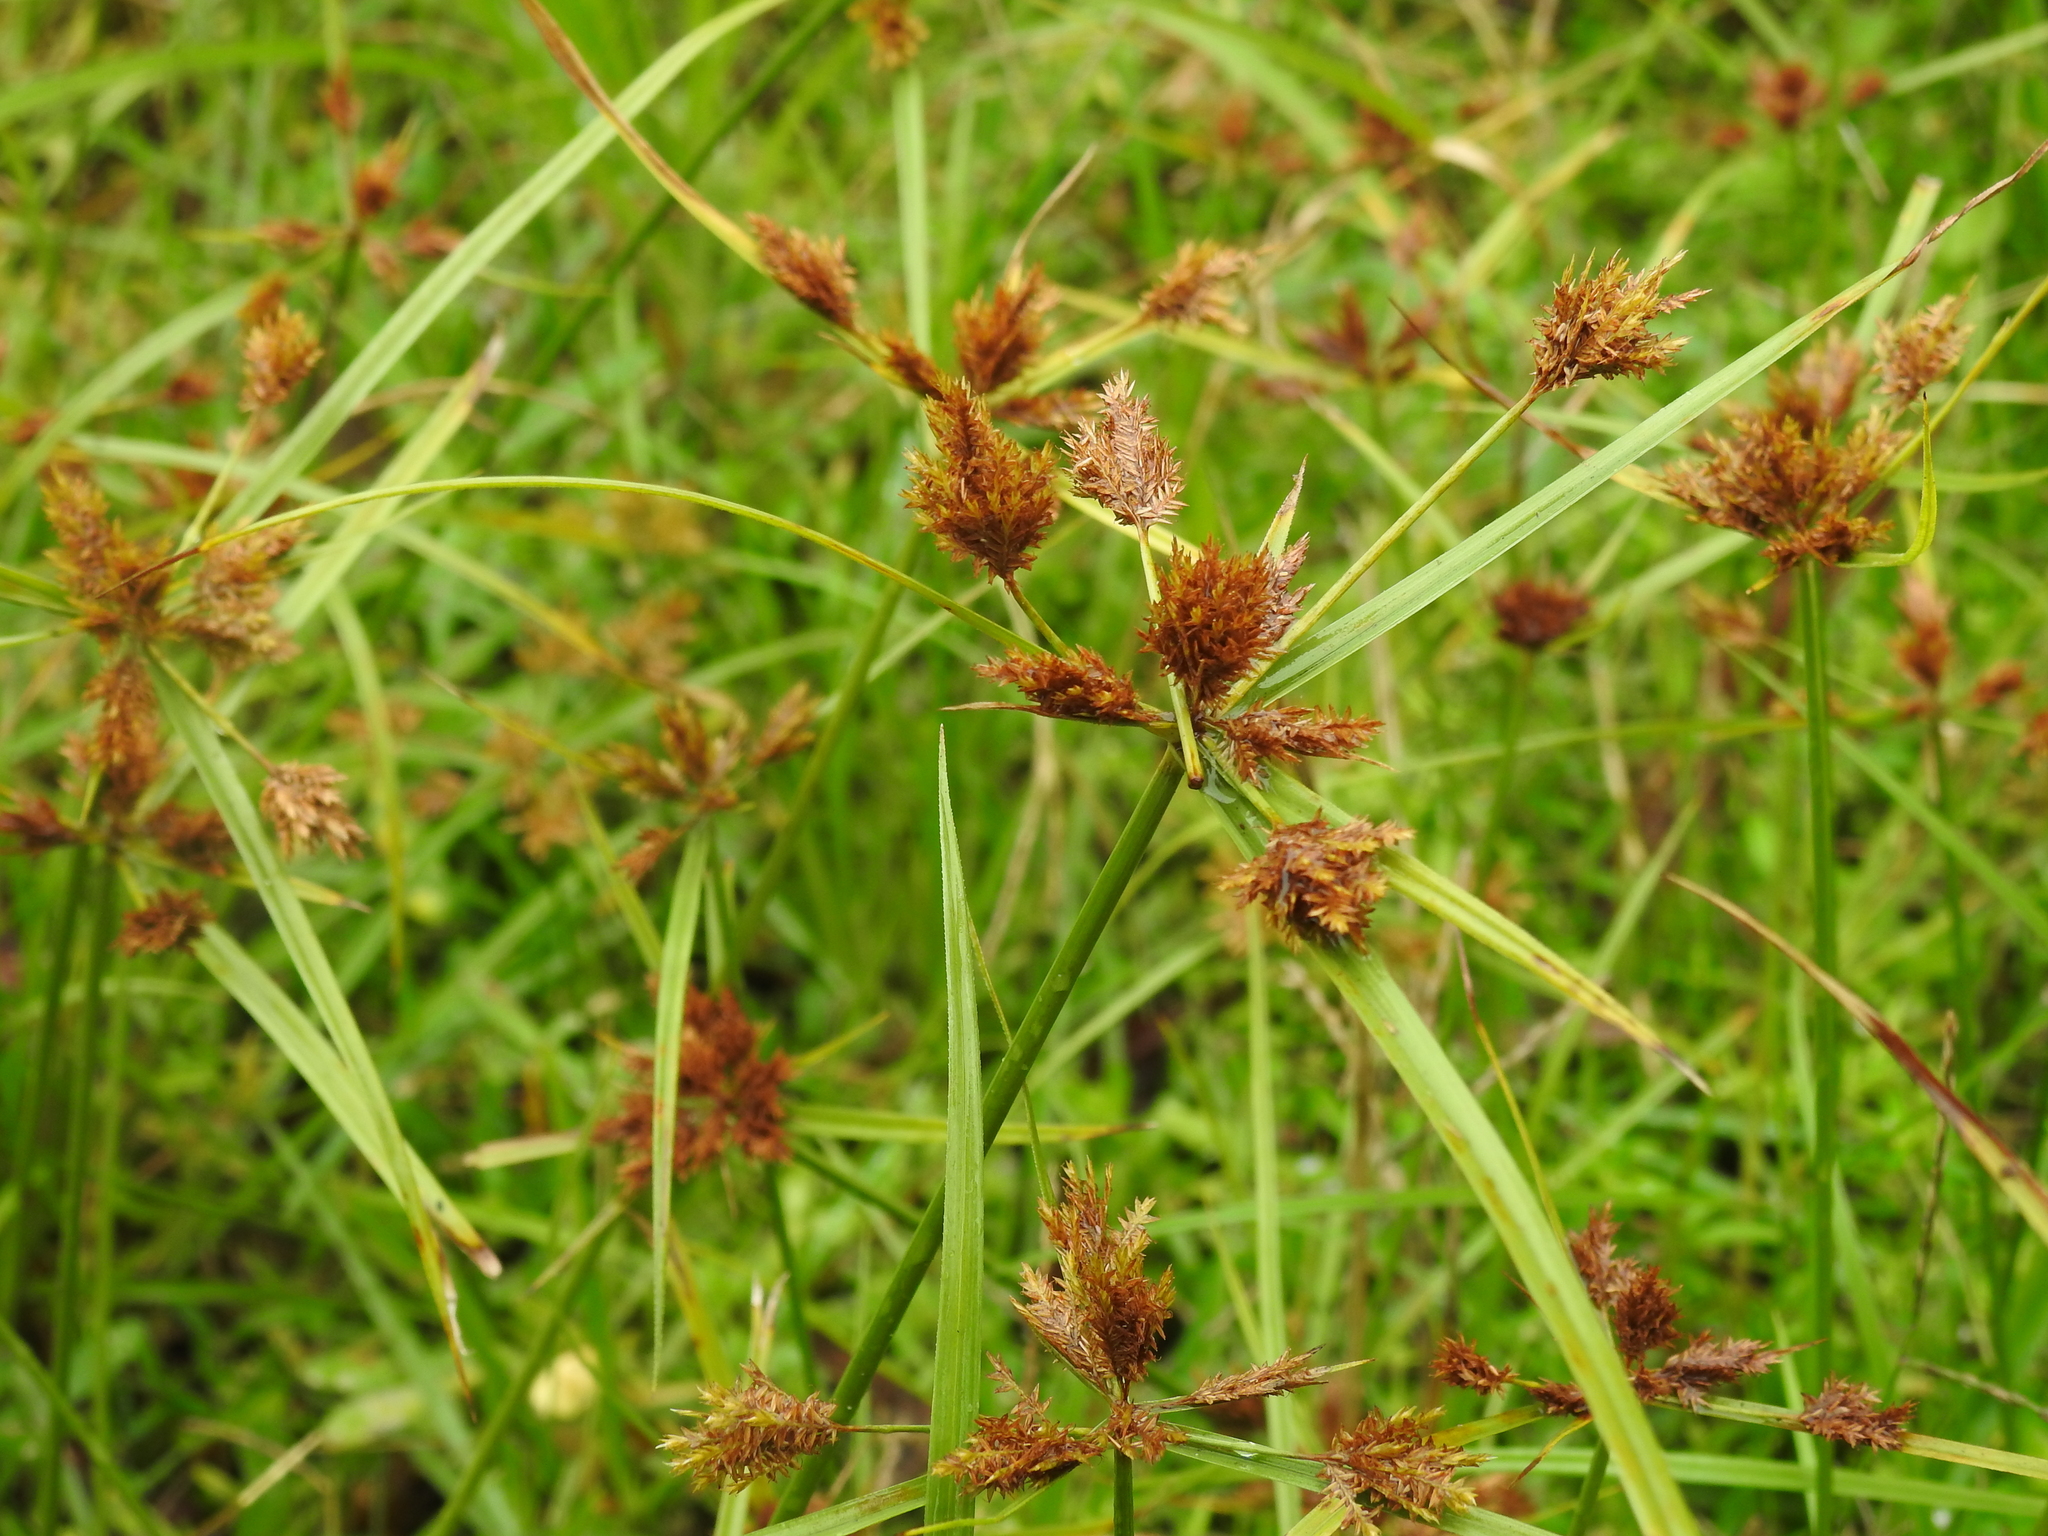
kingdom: Plantae
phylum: Tracheophyta
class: Liliopsida
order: Poales
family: Cyperaceae
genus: Cyperus
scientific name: Cyperus polystachyos
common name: Bunchy flat sedge
